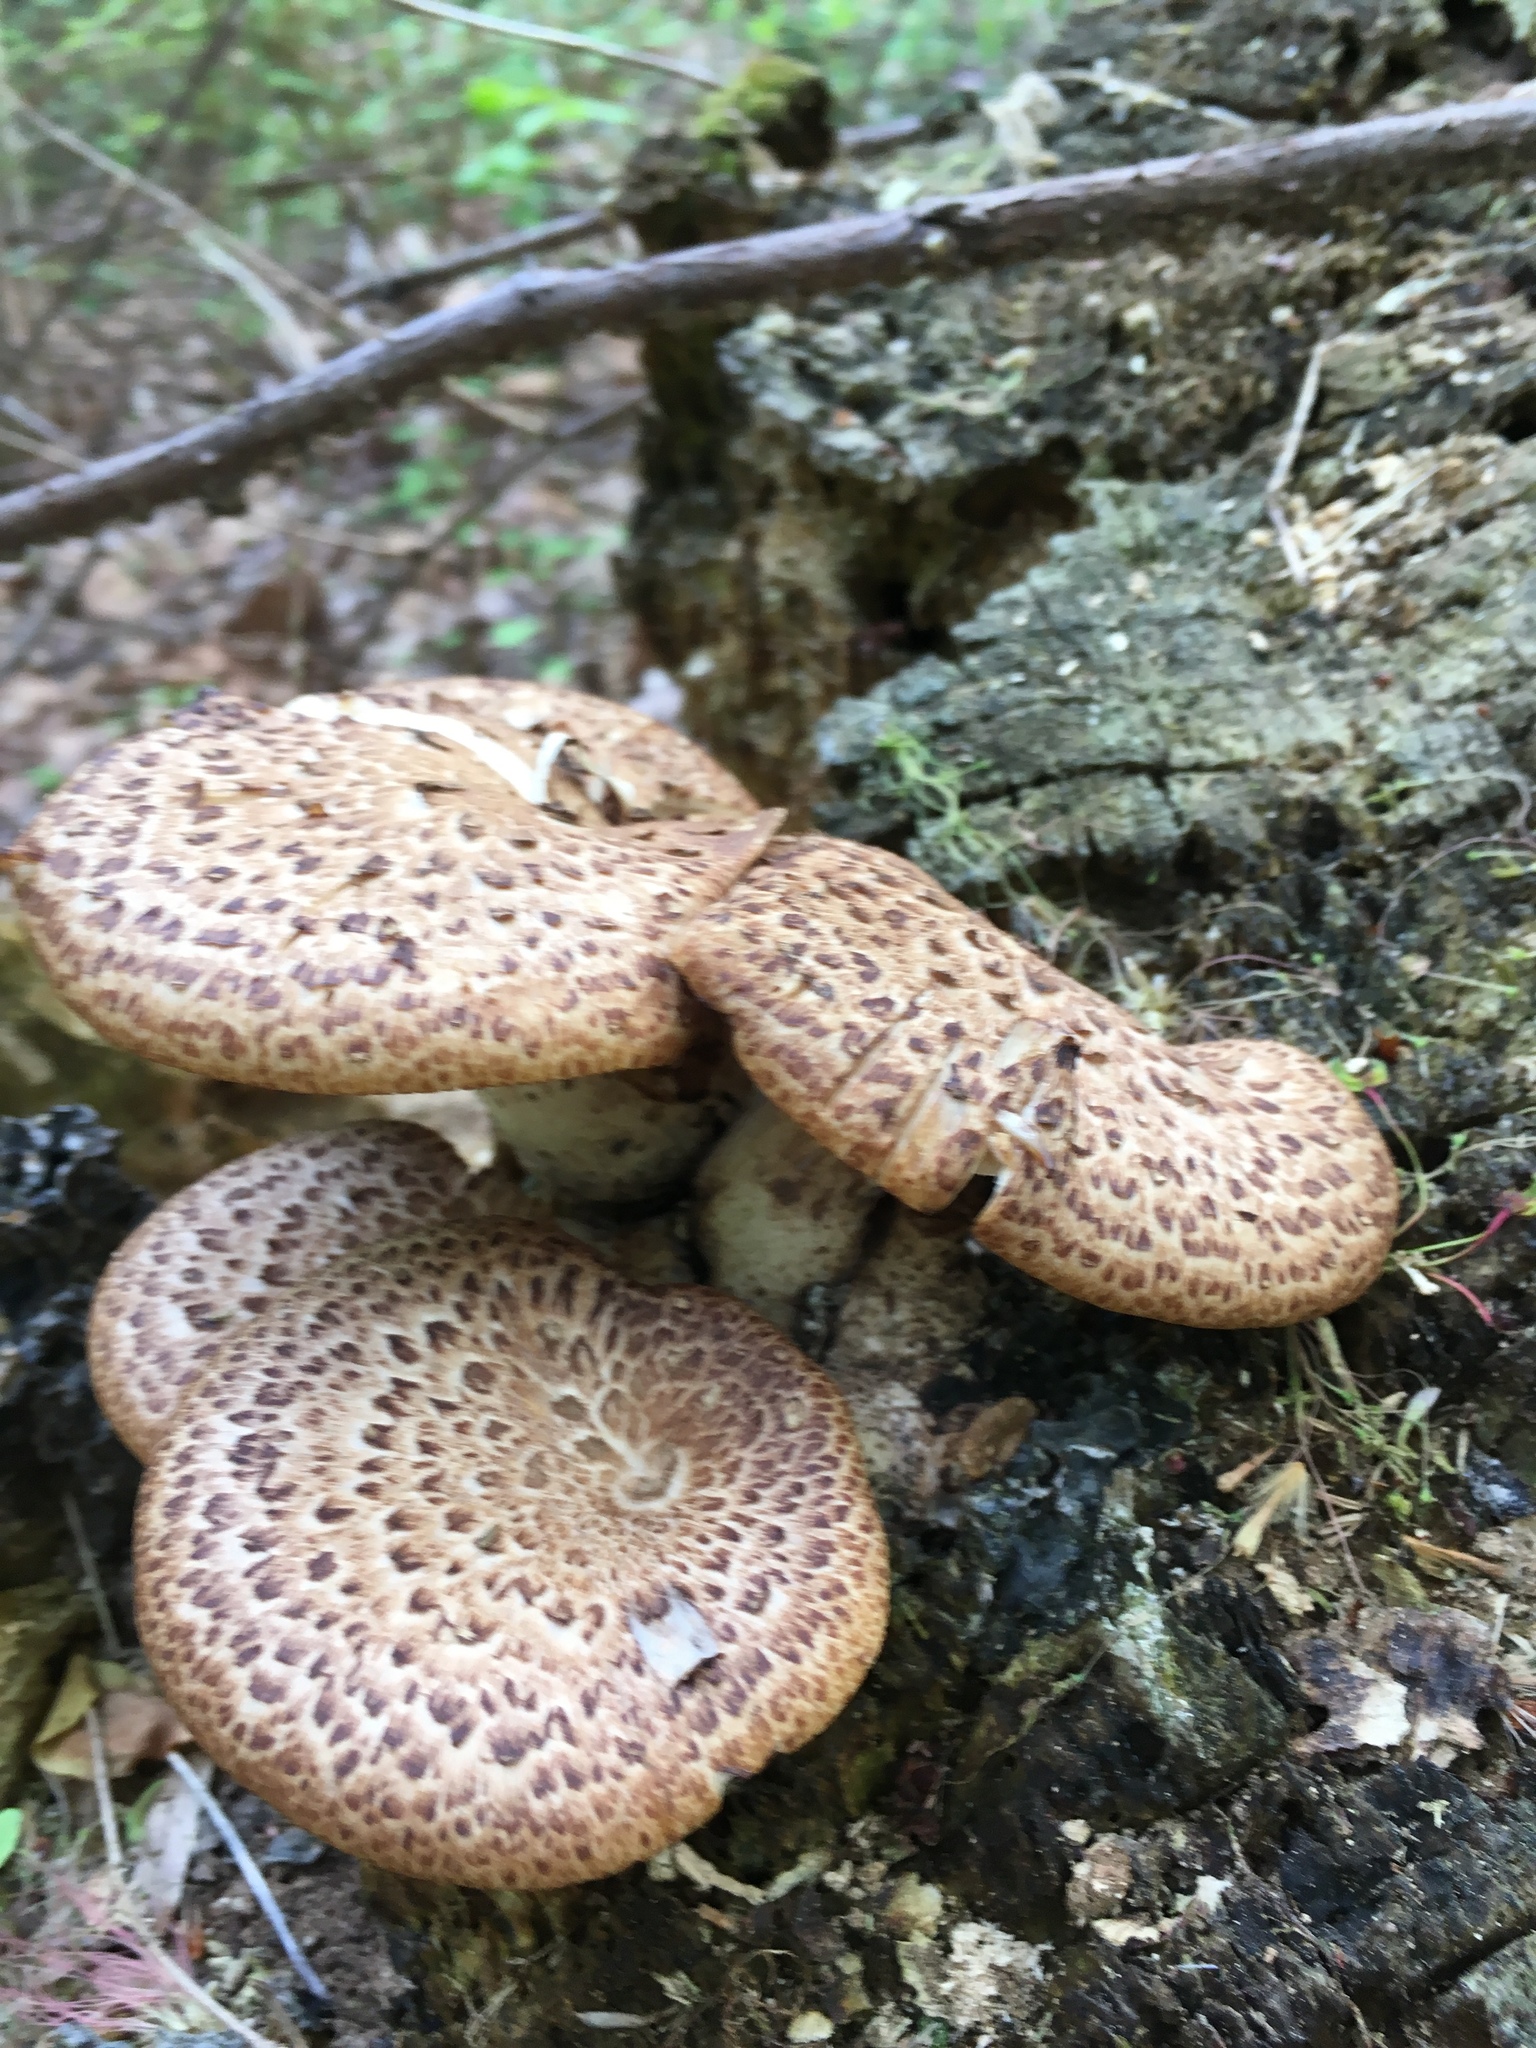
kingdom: Fungi
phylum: Basidiomycota
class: Agaricomycetes
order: Polyporales
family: Polyporaceae
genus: Cerioporus
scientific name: Cerioporus squamosus
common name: Dryad's saddle
